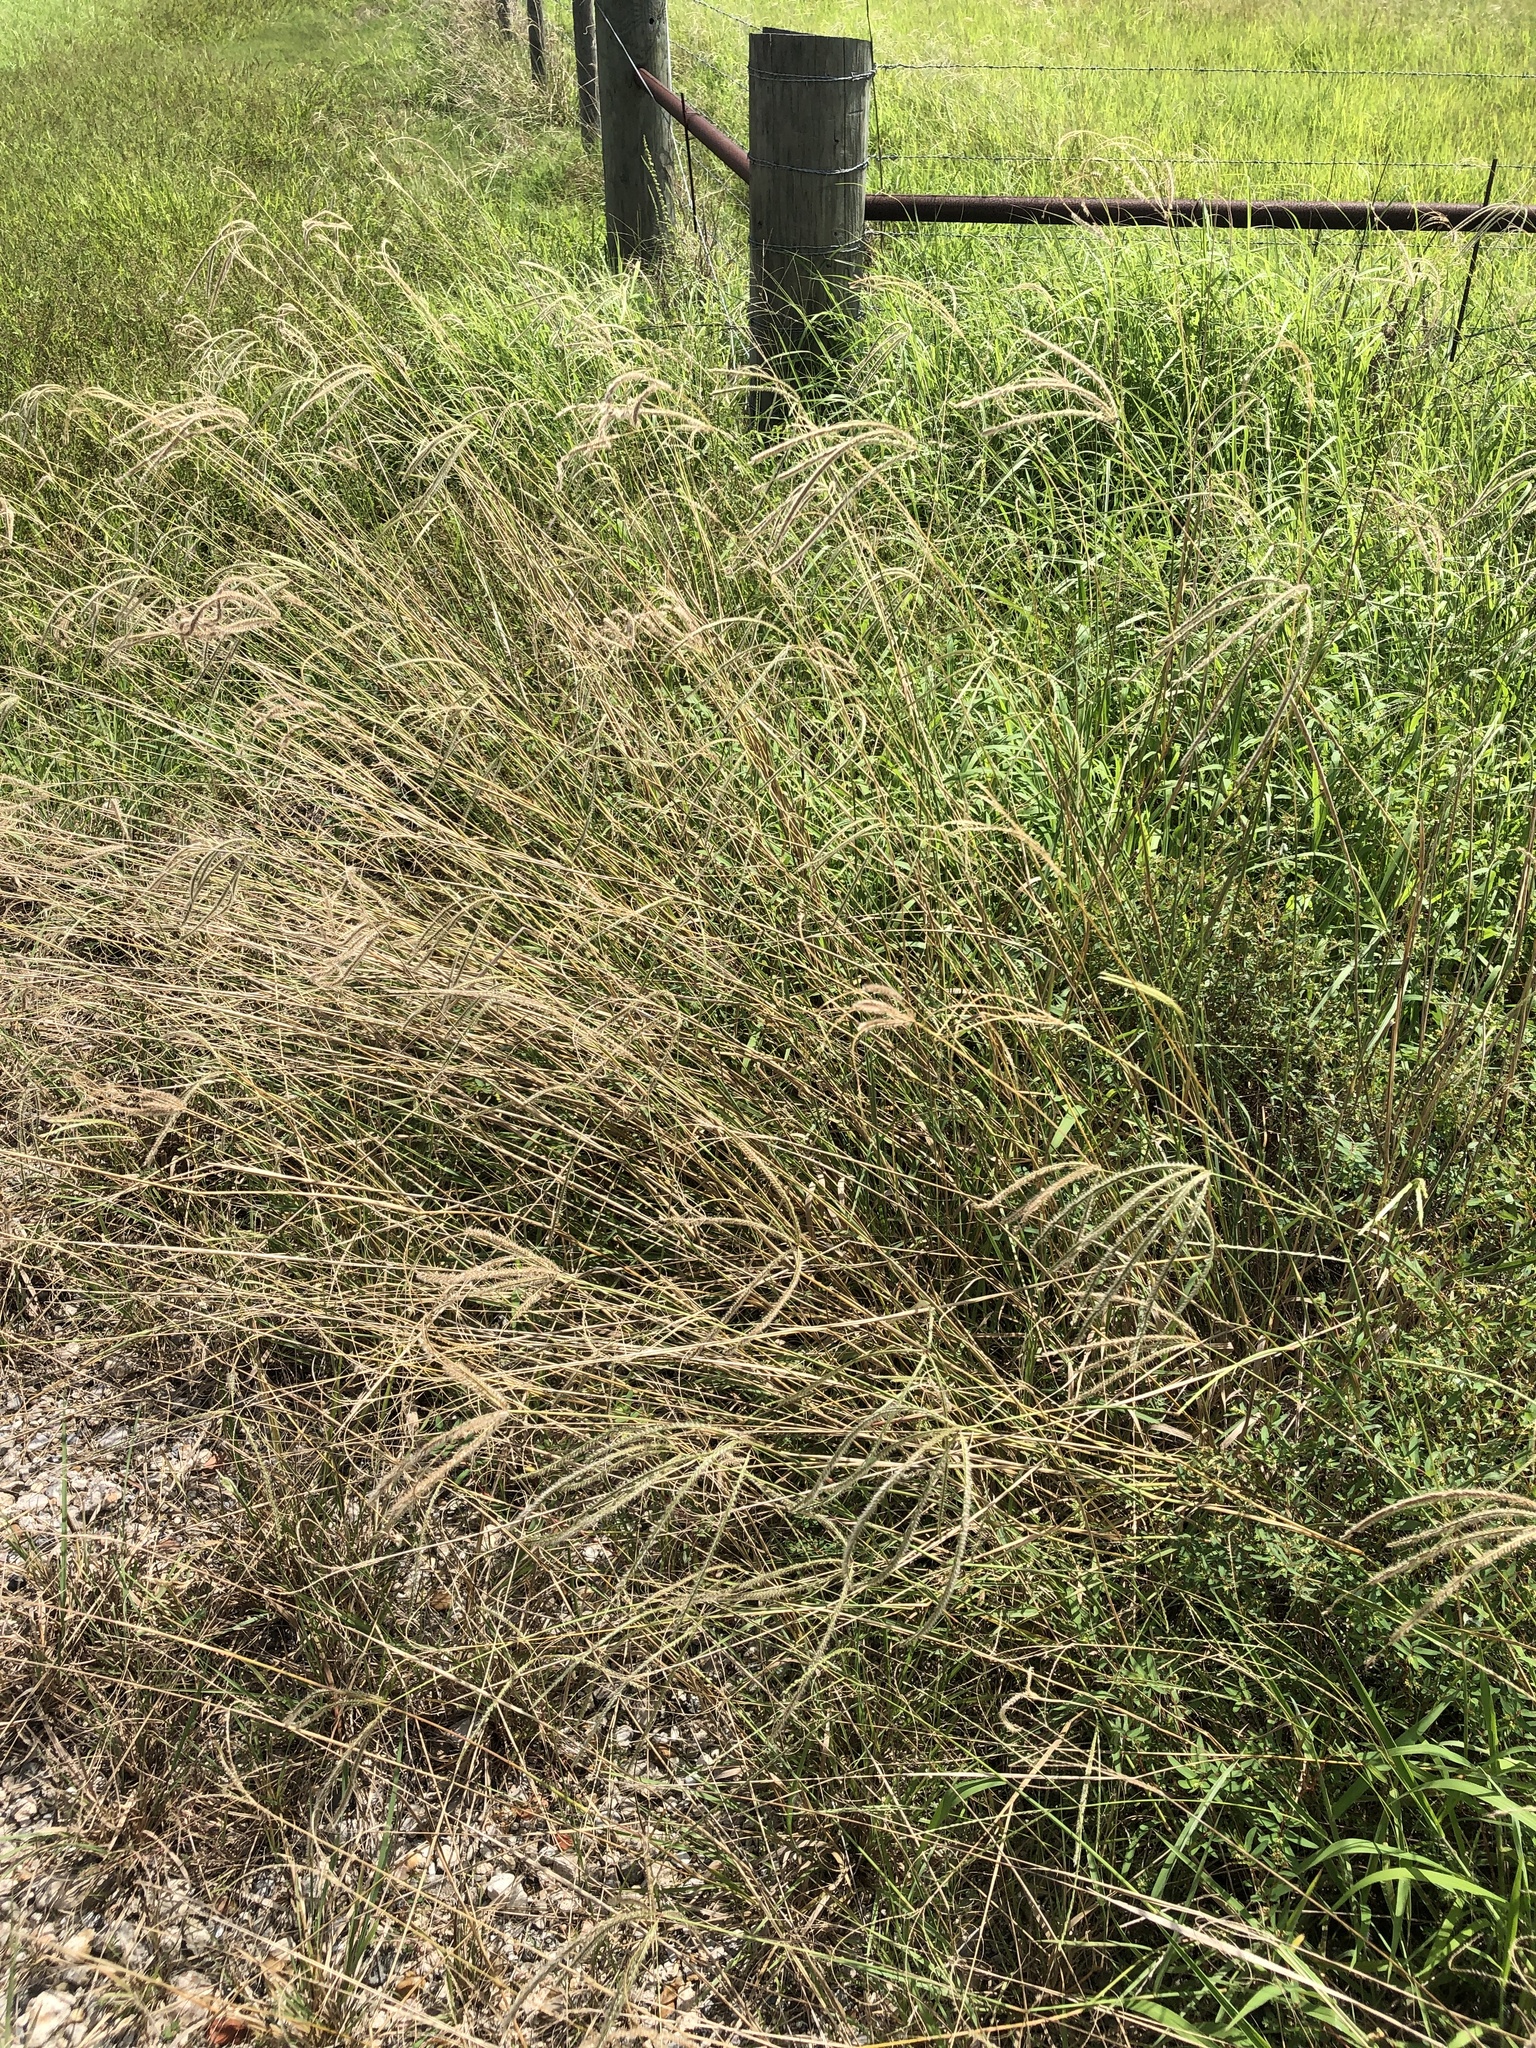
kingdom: Plantae
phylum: Tracheophyta
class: Liliopsida
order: Poales
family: Poaceae
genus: Stapfochloa
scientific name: Stapfochloa canterae
